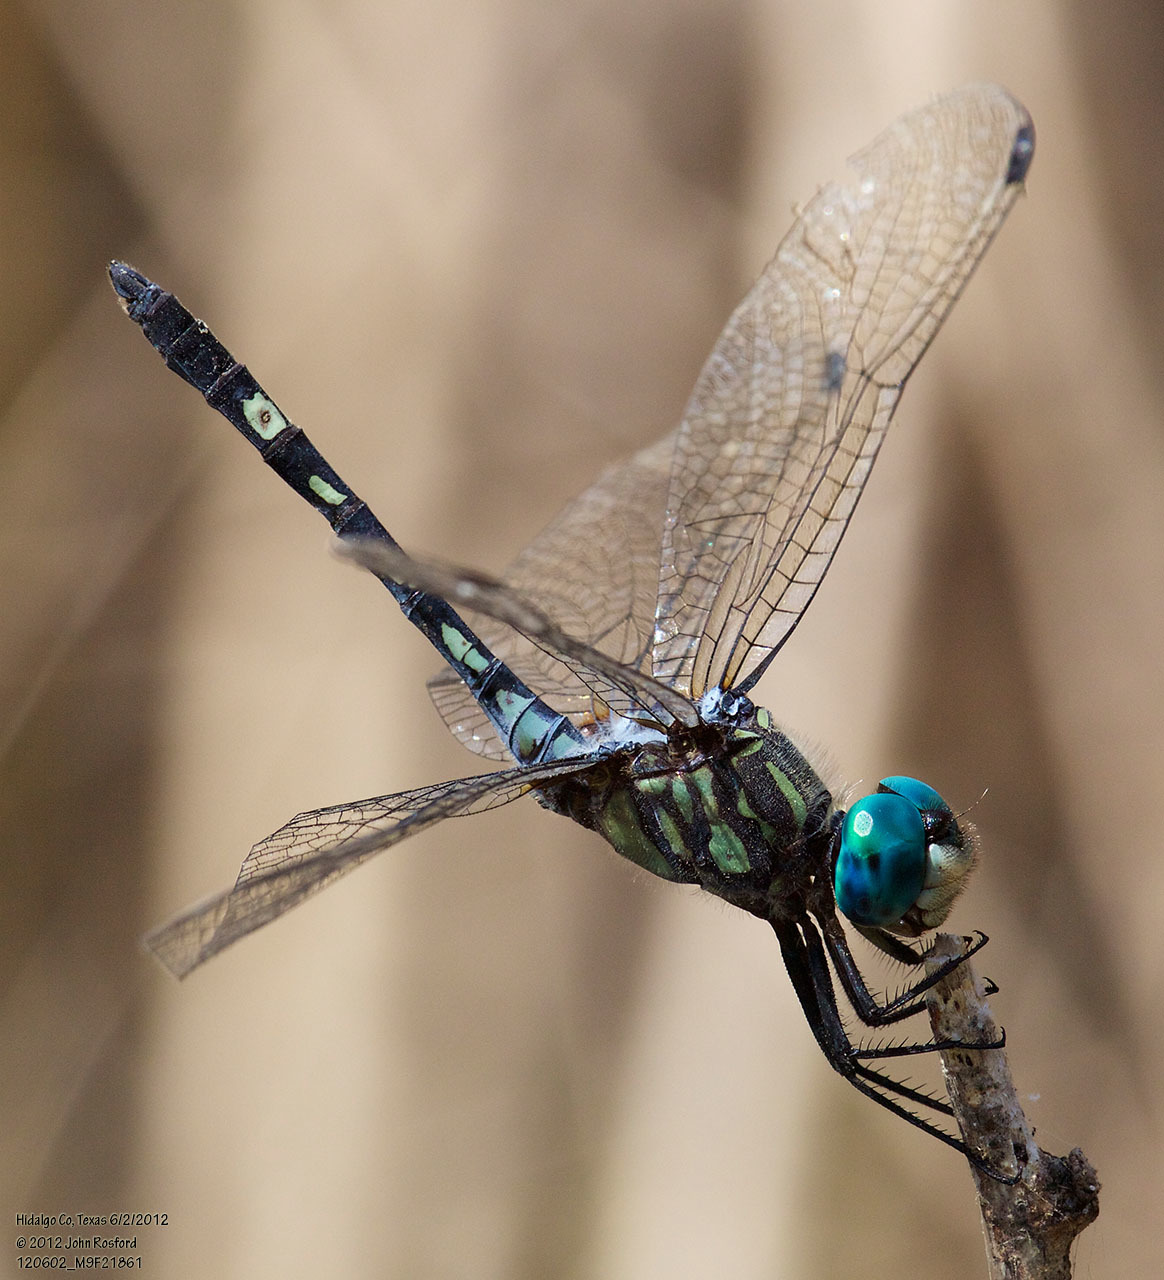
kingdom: Animalia
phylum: Arthropoda
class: Insecta
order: Odonata
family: Libellulidae
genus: Micrathyria
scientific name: Micrathyria hagenii
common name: Thornbush dasher
